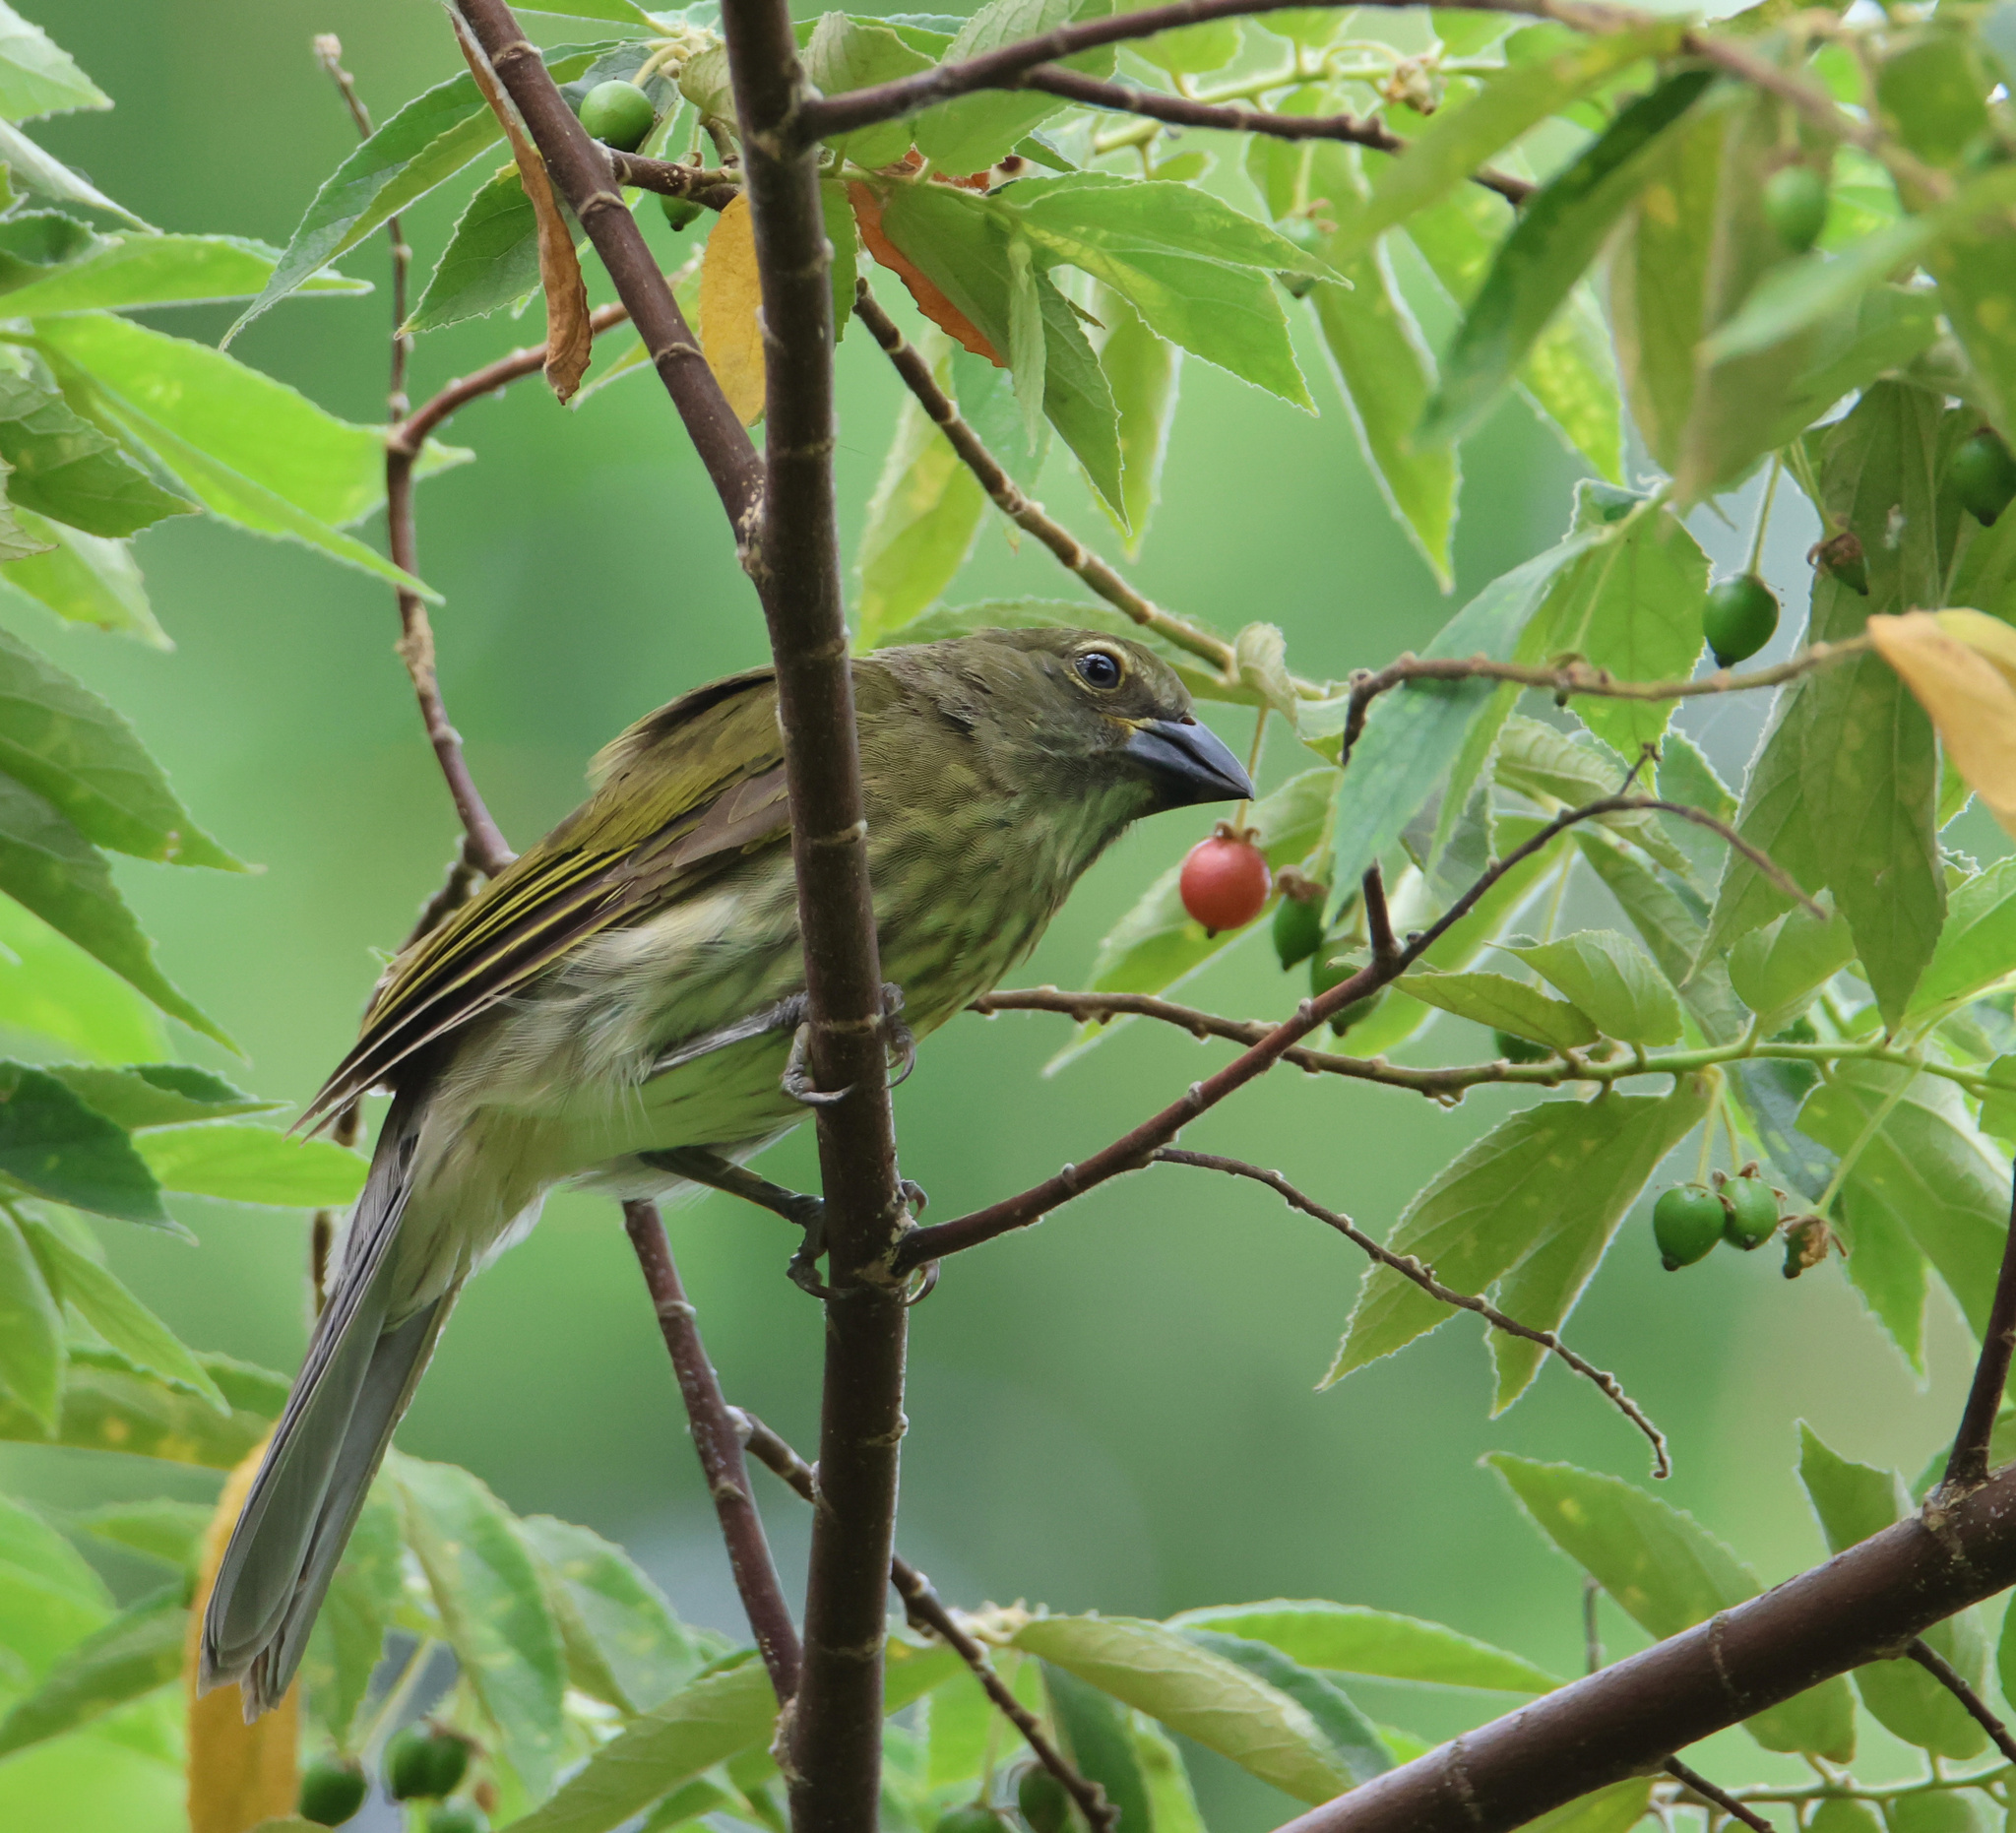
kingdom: Animalia
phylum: Chordata
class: Aves
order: Passeriformes
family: Thraupidae
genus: Saltator
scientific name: Saltator striatipectus
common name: Streaked saltator
